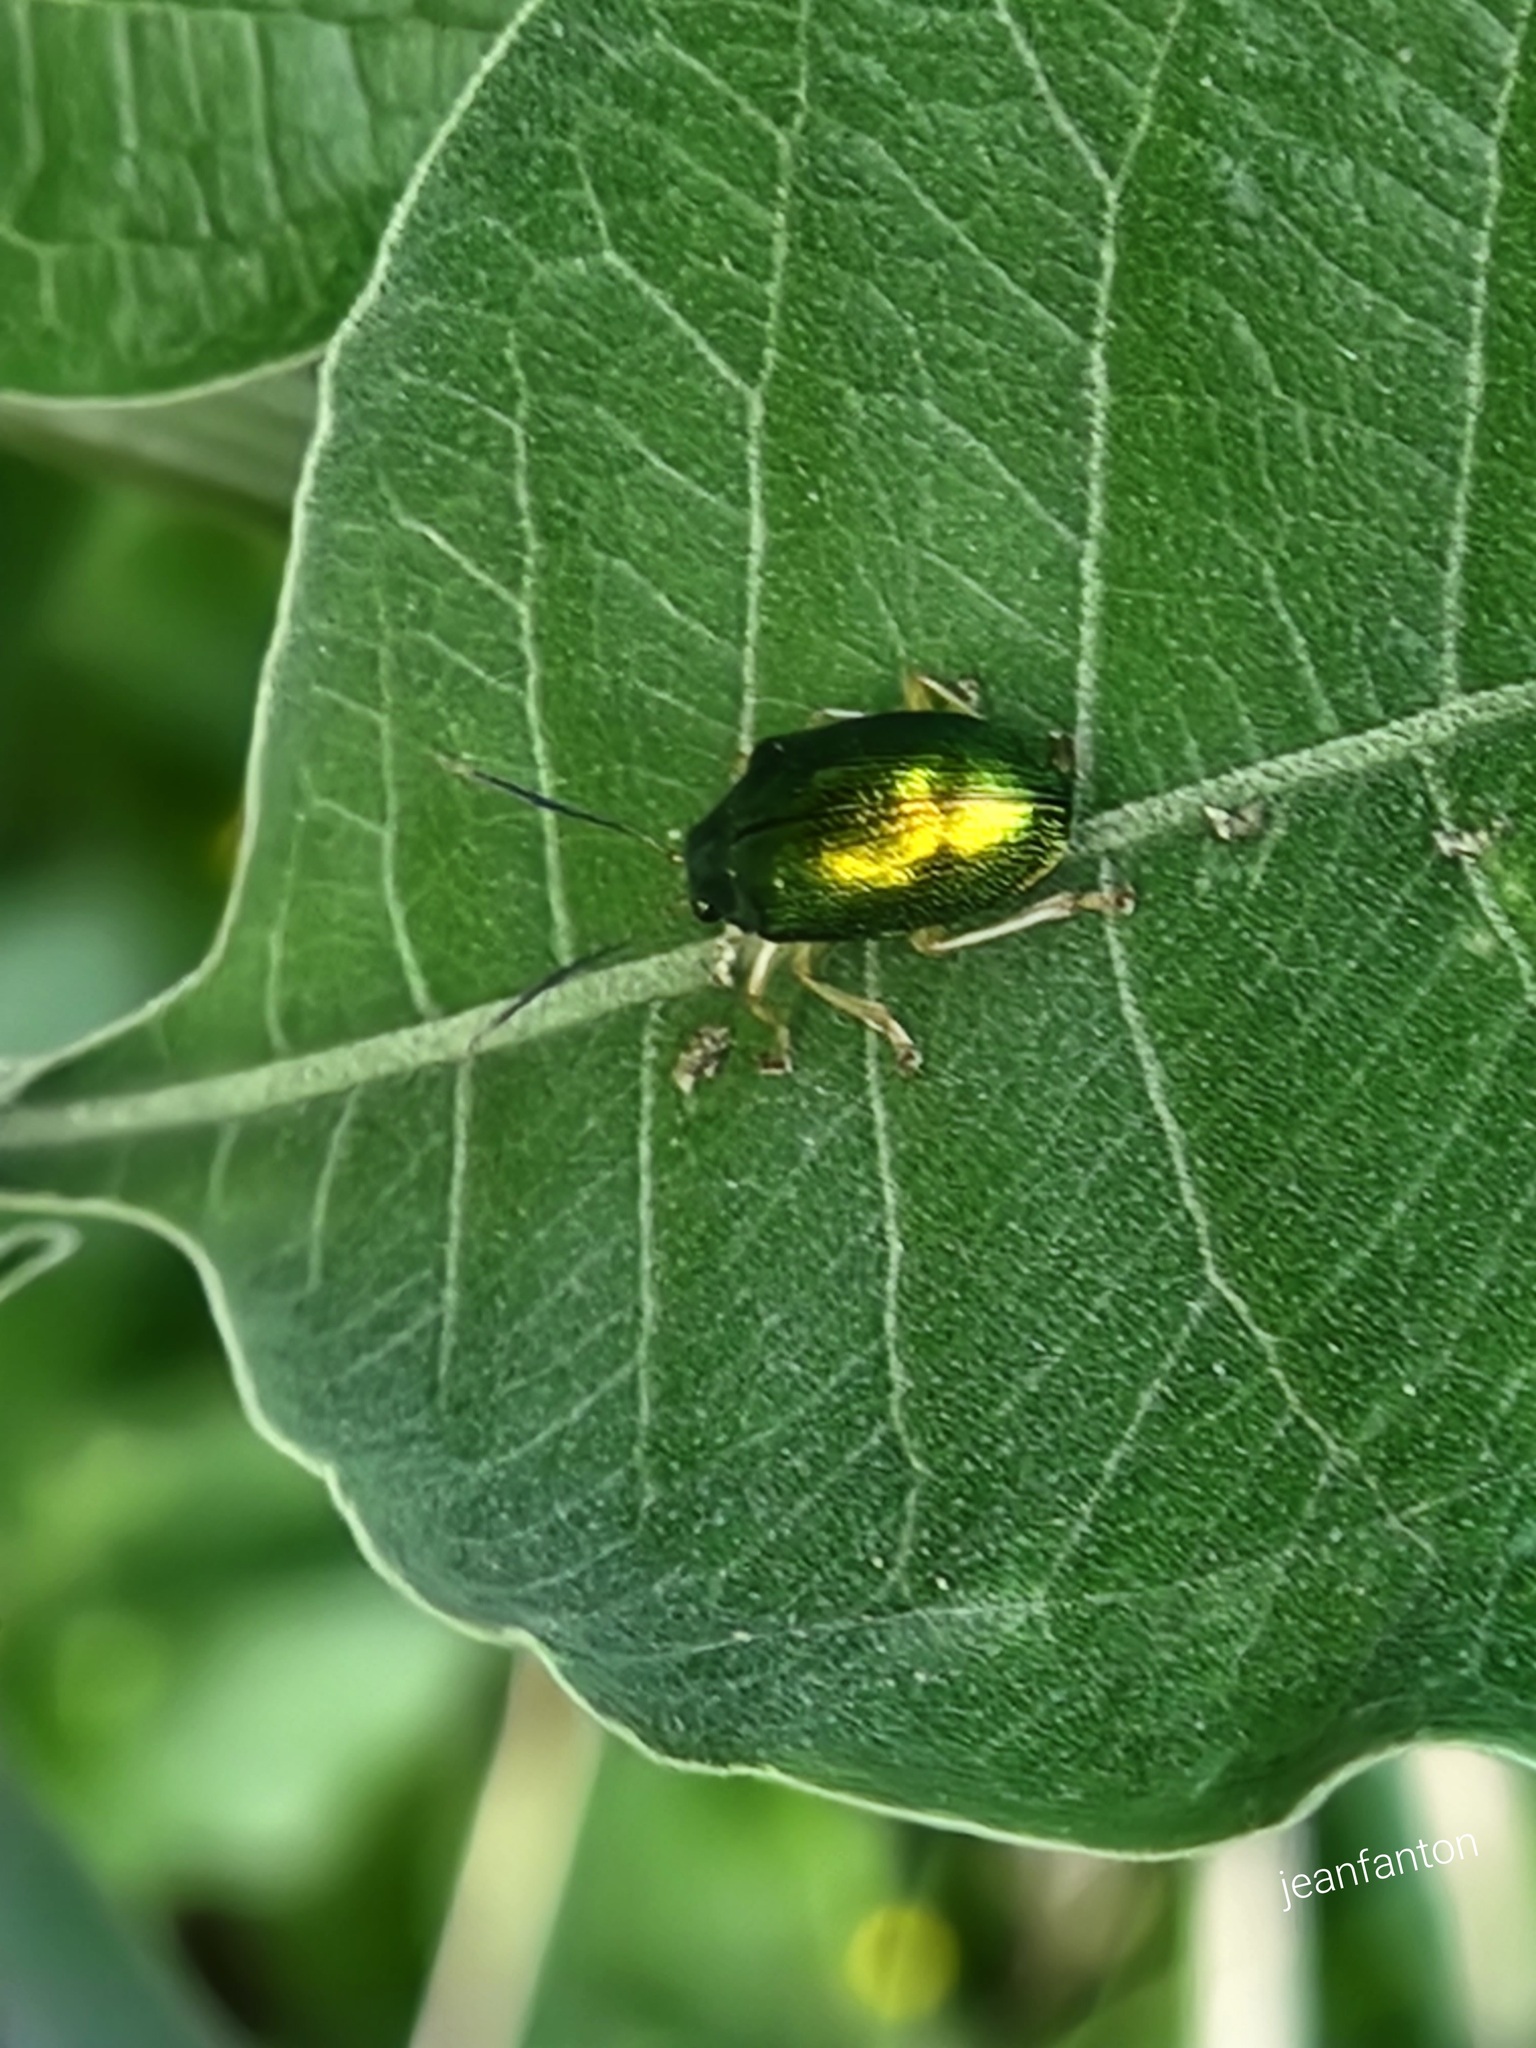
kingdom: Animalia
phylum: Arthropoda
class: Insecta
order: Coleoptera
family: Chrysomelidae
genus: Colaspis
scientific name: Colaspis
